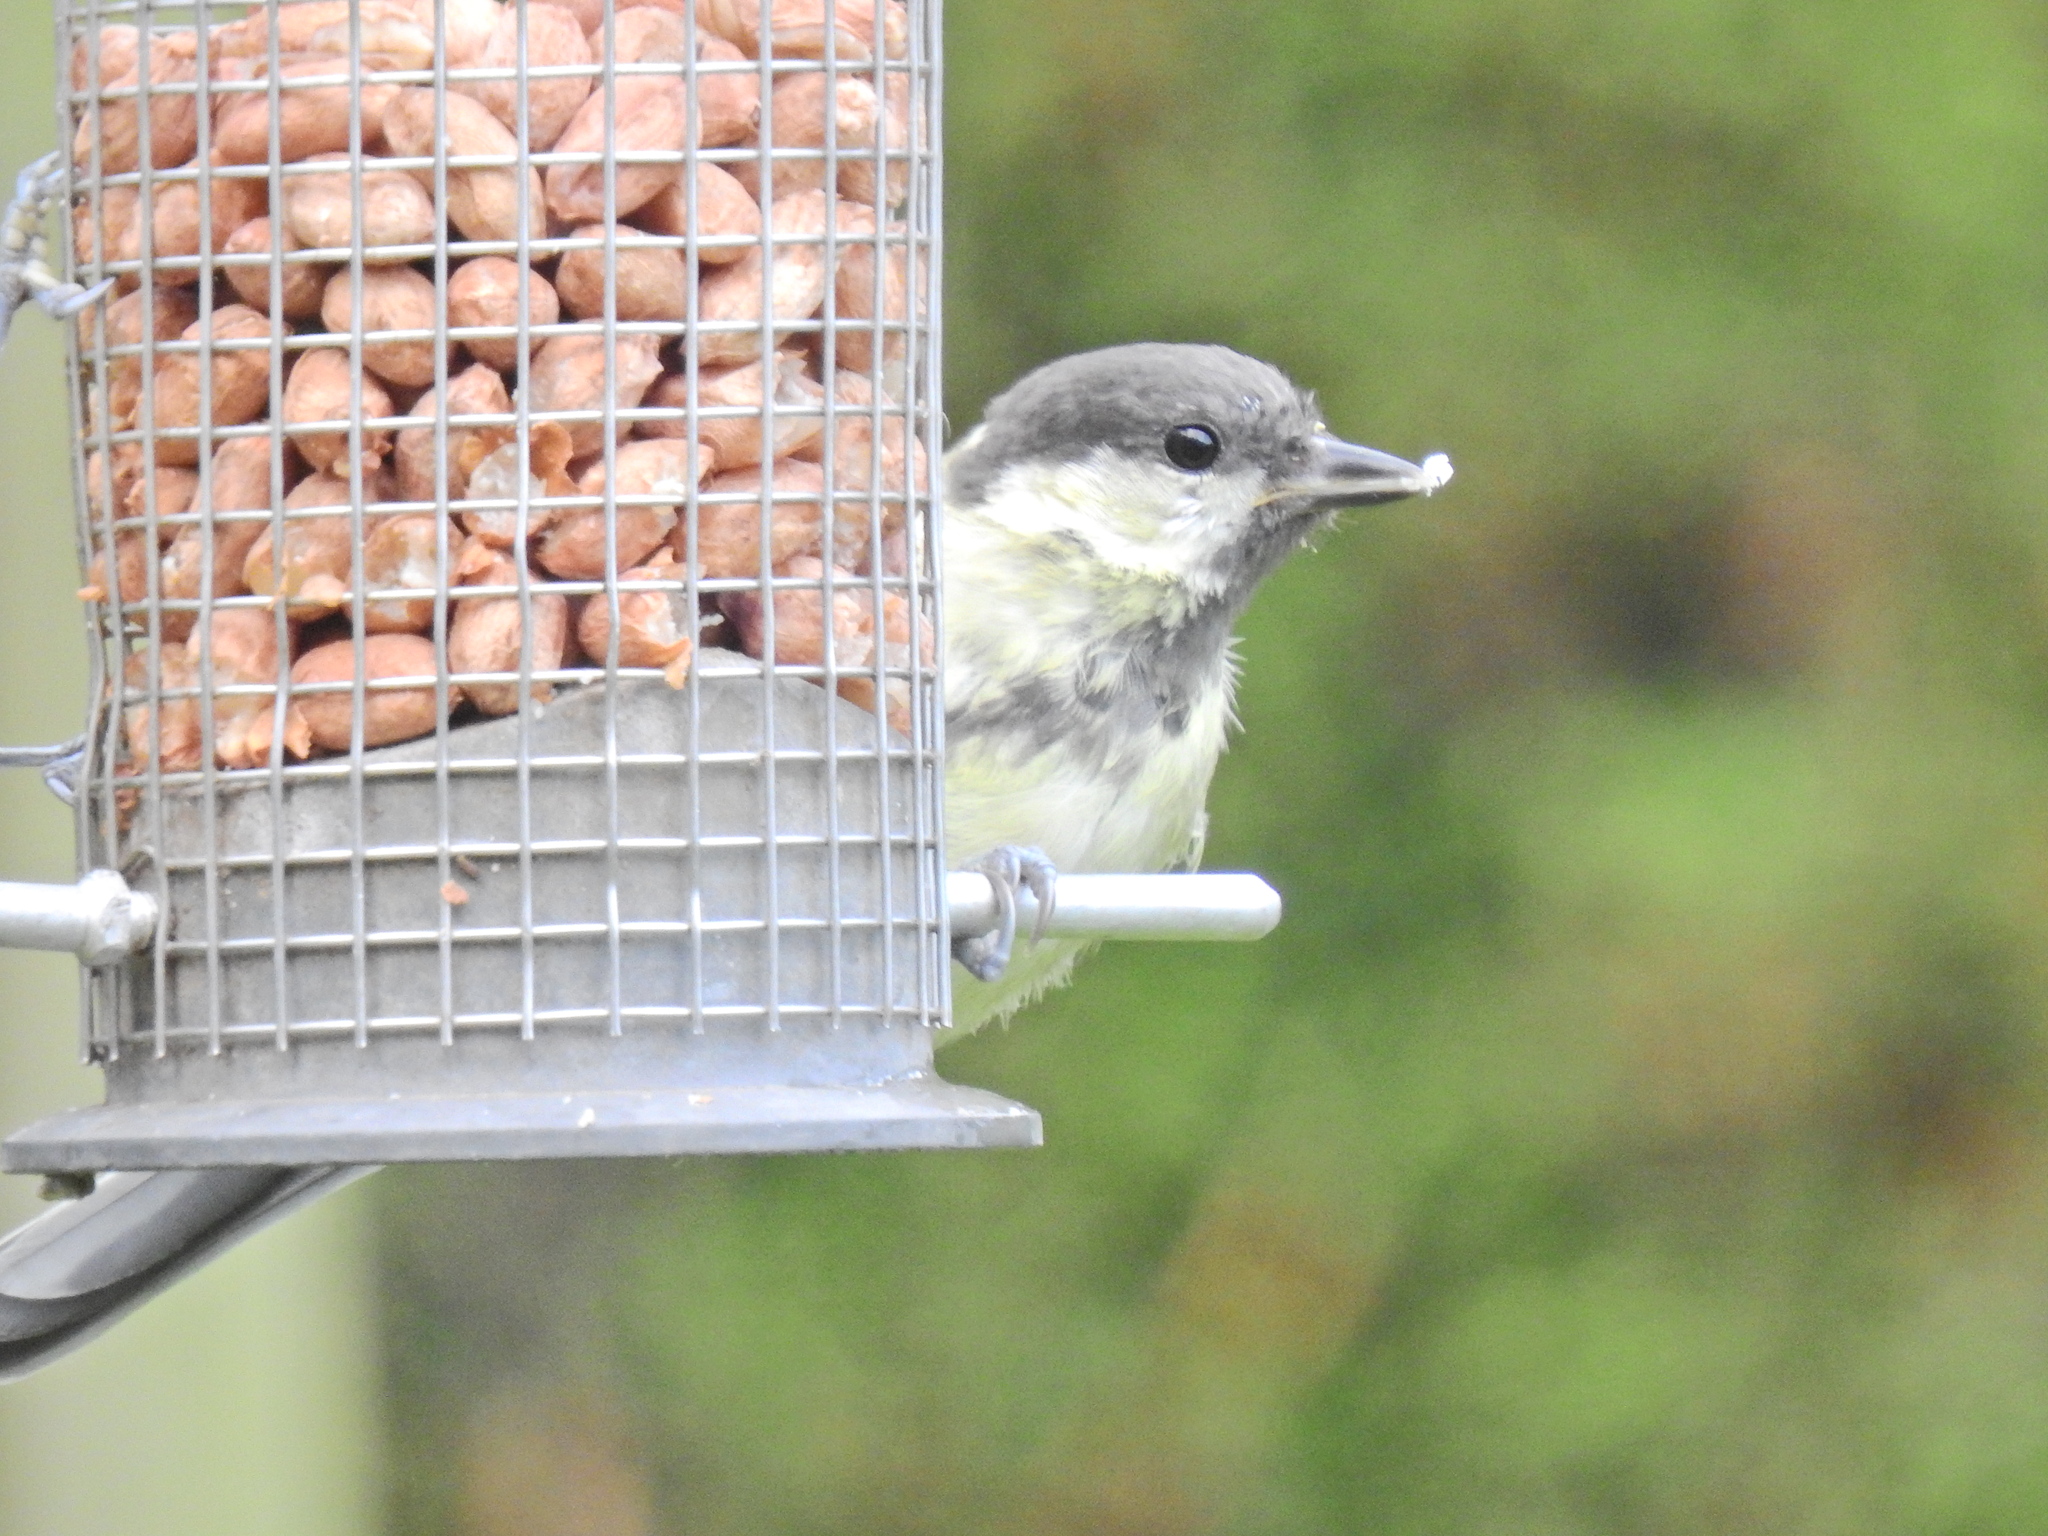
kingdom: Animalia
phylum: Chordata
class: Aves
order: Passeriformes
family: Paridae
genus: Parus
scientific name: Parus major
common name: Great tit
